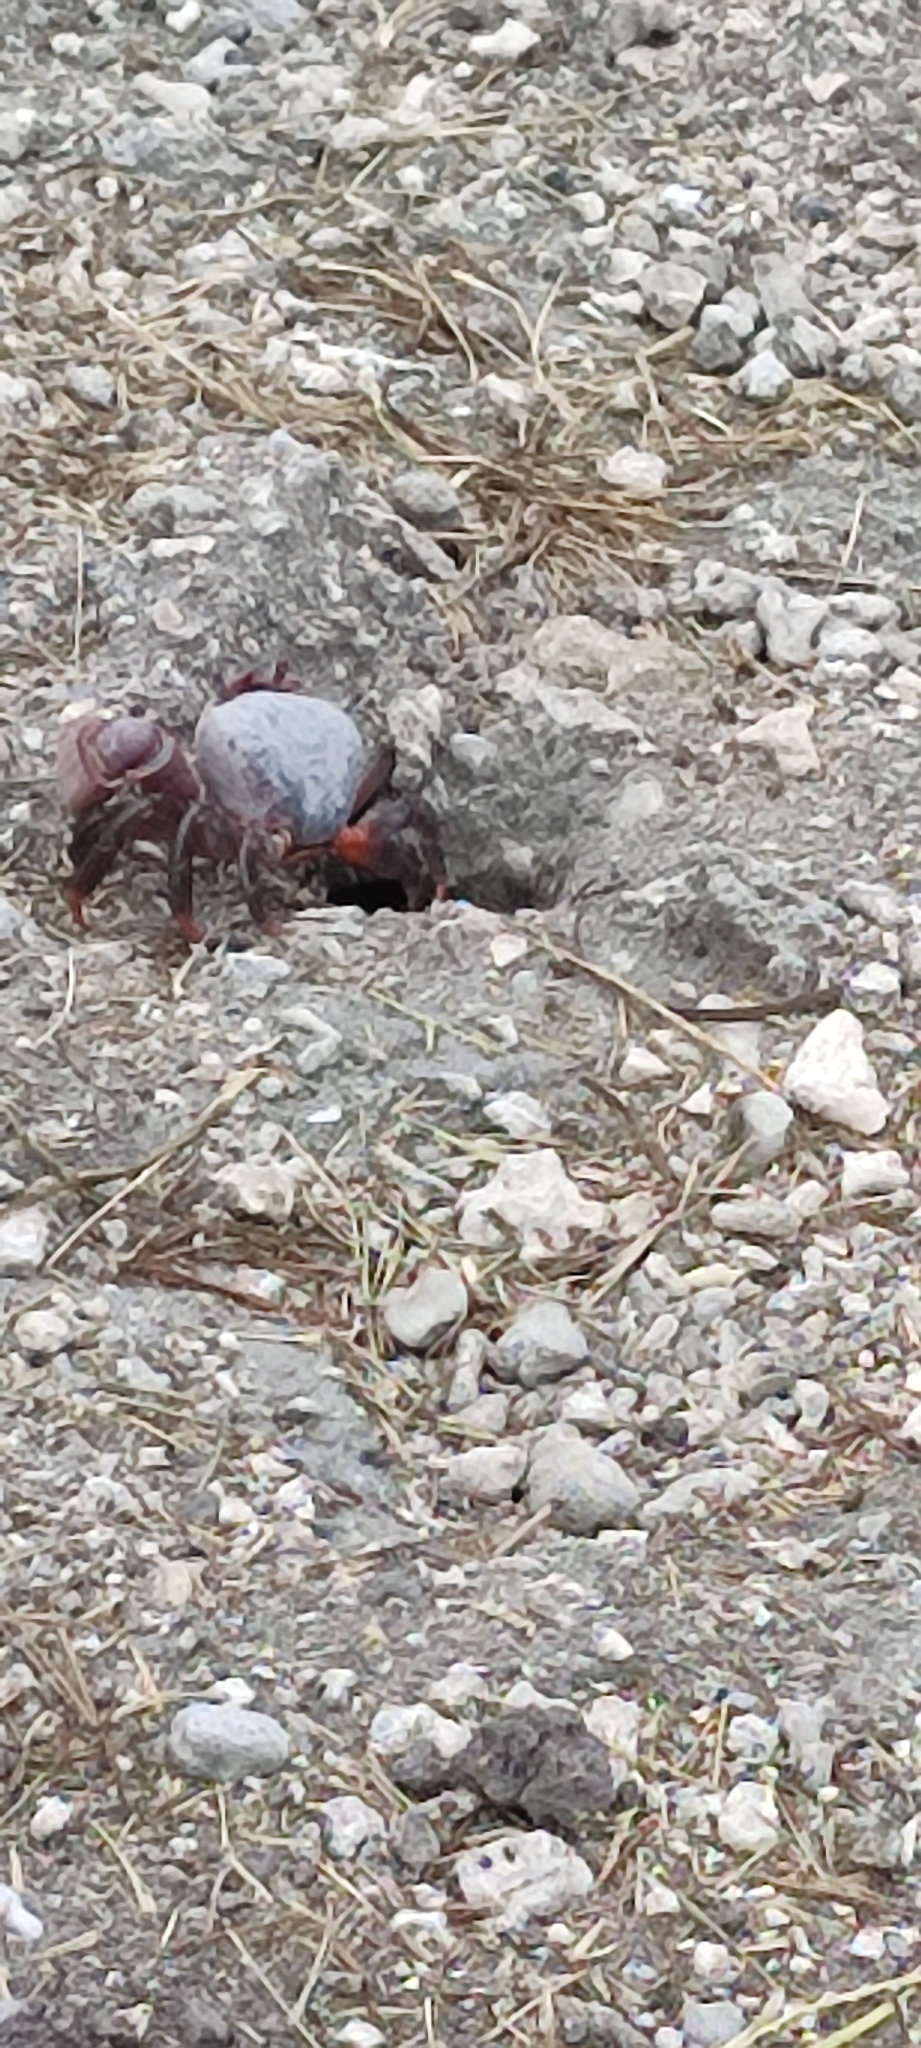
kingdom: Animalia
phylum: Arthropoda
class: Malacostraca
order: Decapoda
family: Gecarcinidae
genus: Cardisoma
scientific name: Cardisoma carnifex
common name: Brown land crab
